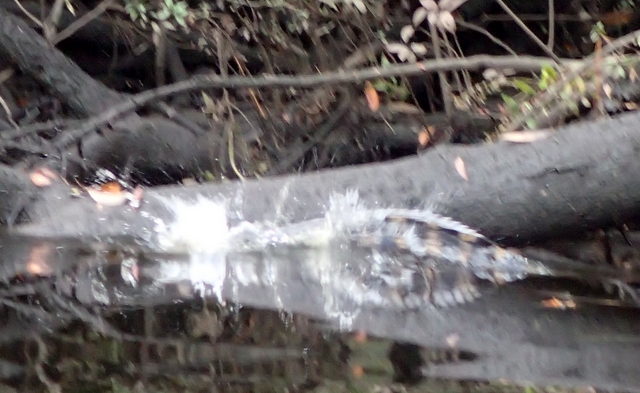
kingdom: Animalia
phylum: Chordata
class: Crocodylia
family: Alligatoridae
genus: Alligator
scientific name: Alligator mississippiensis
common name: American alligator
